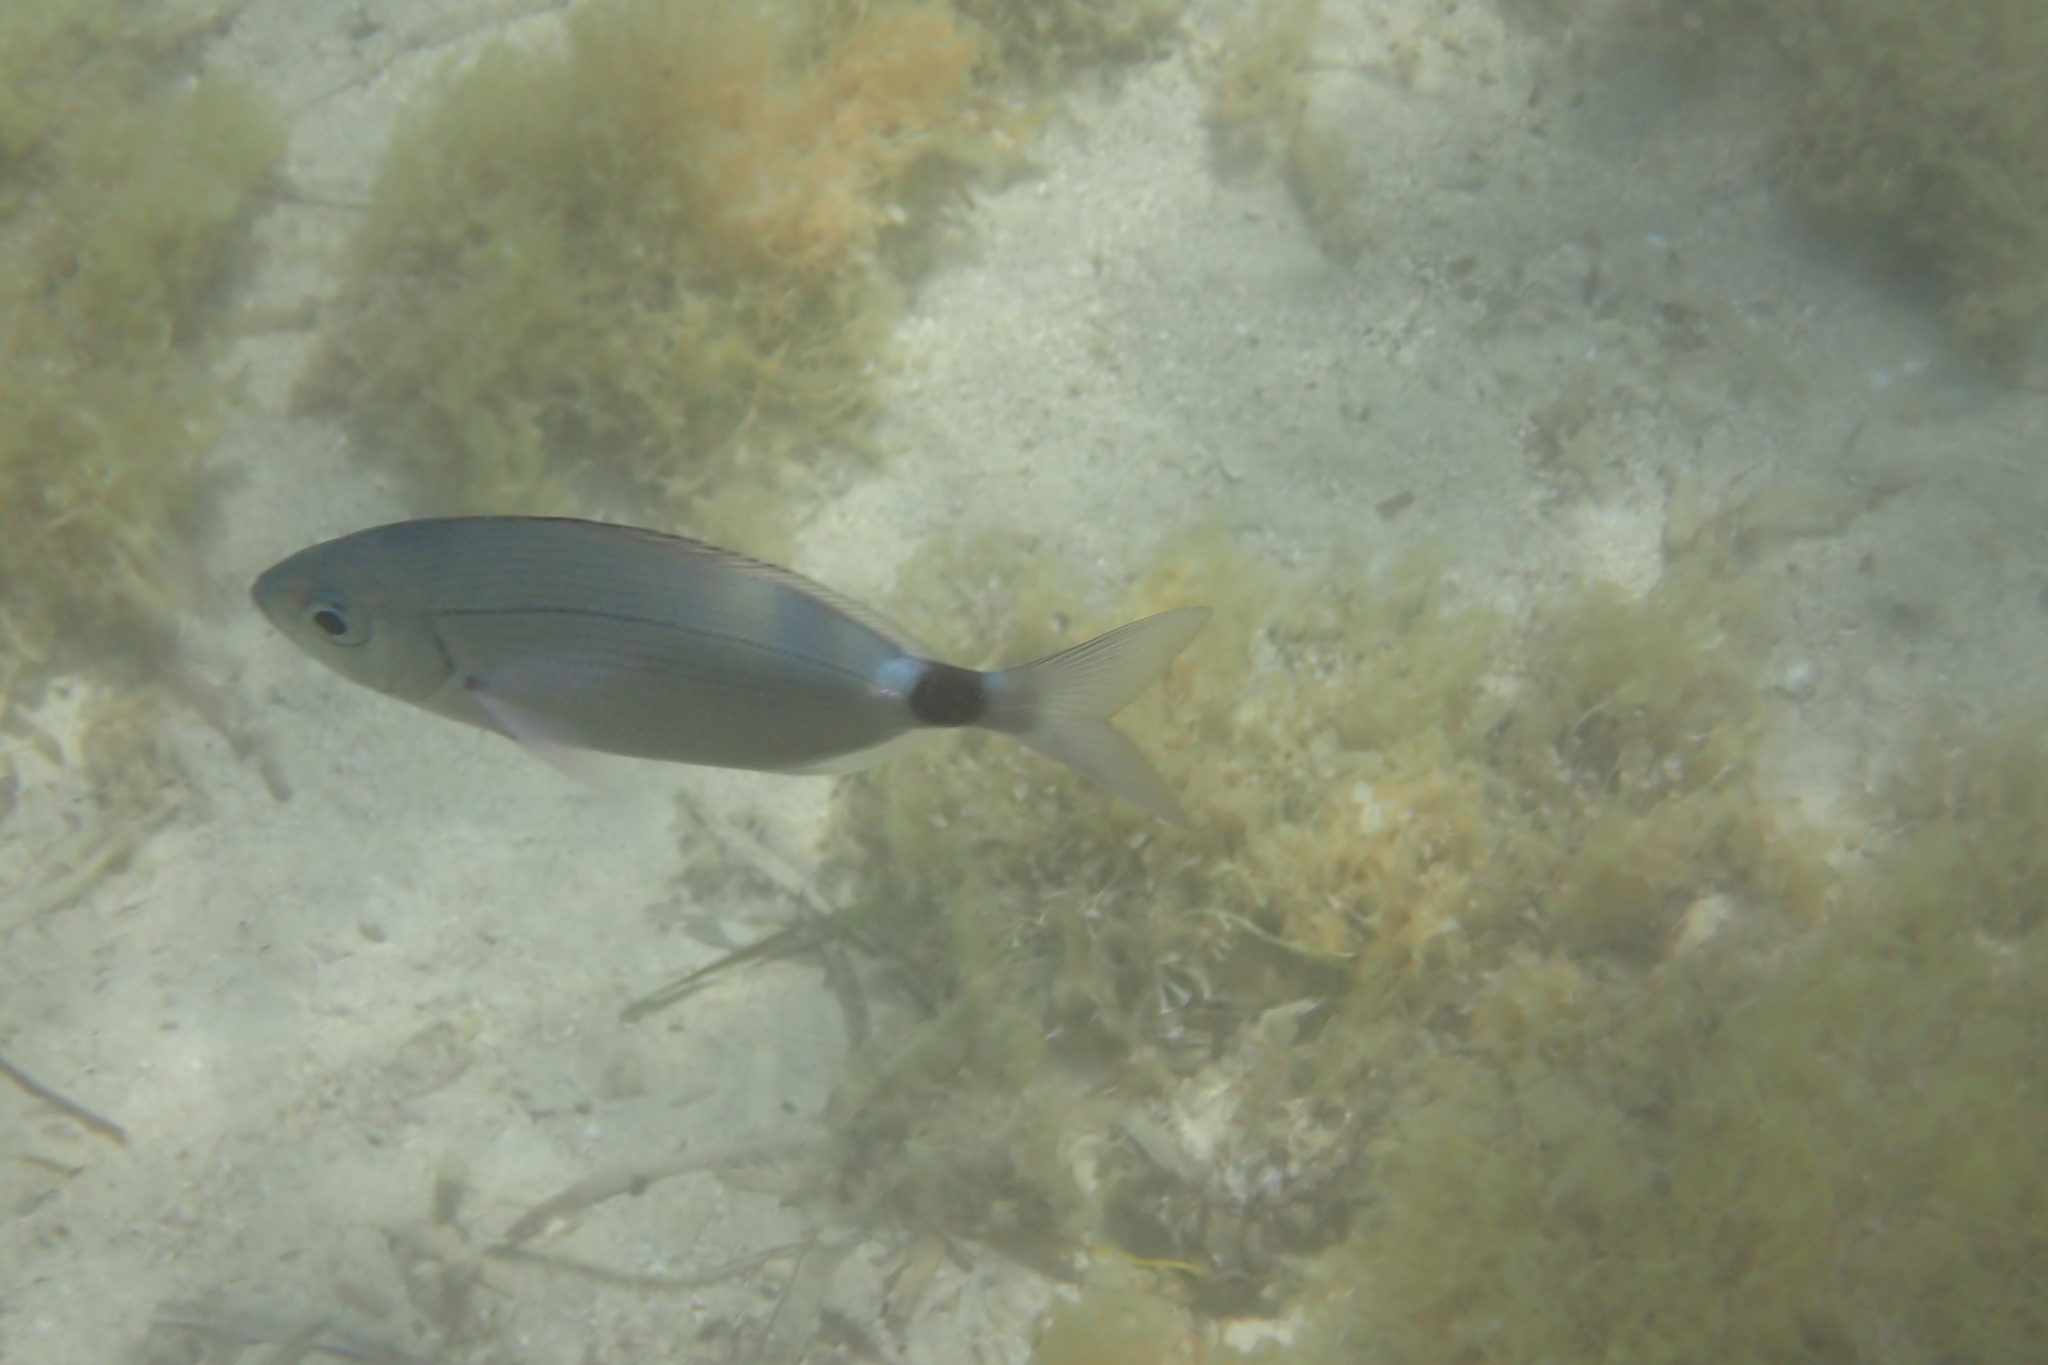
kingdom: Animalia
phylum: Chordata
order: Perciformes
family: Sparidae
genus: Oblada
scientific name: Oblada melanura
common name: Saddled seabream
